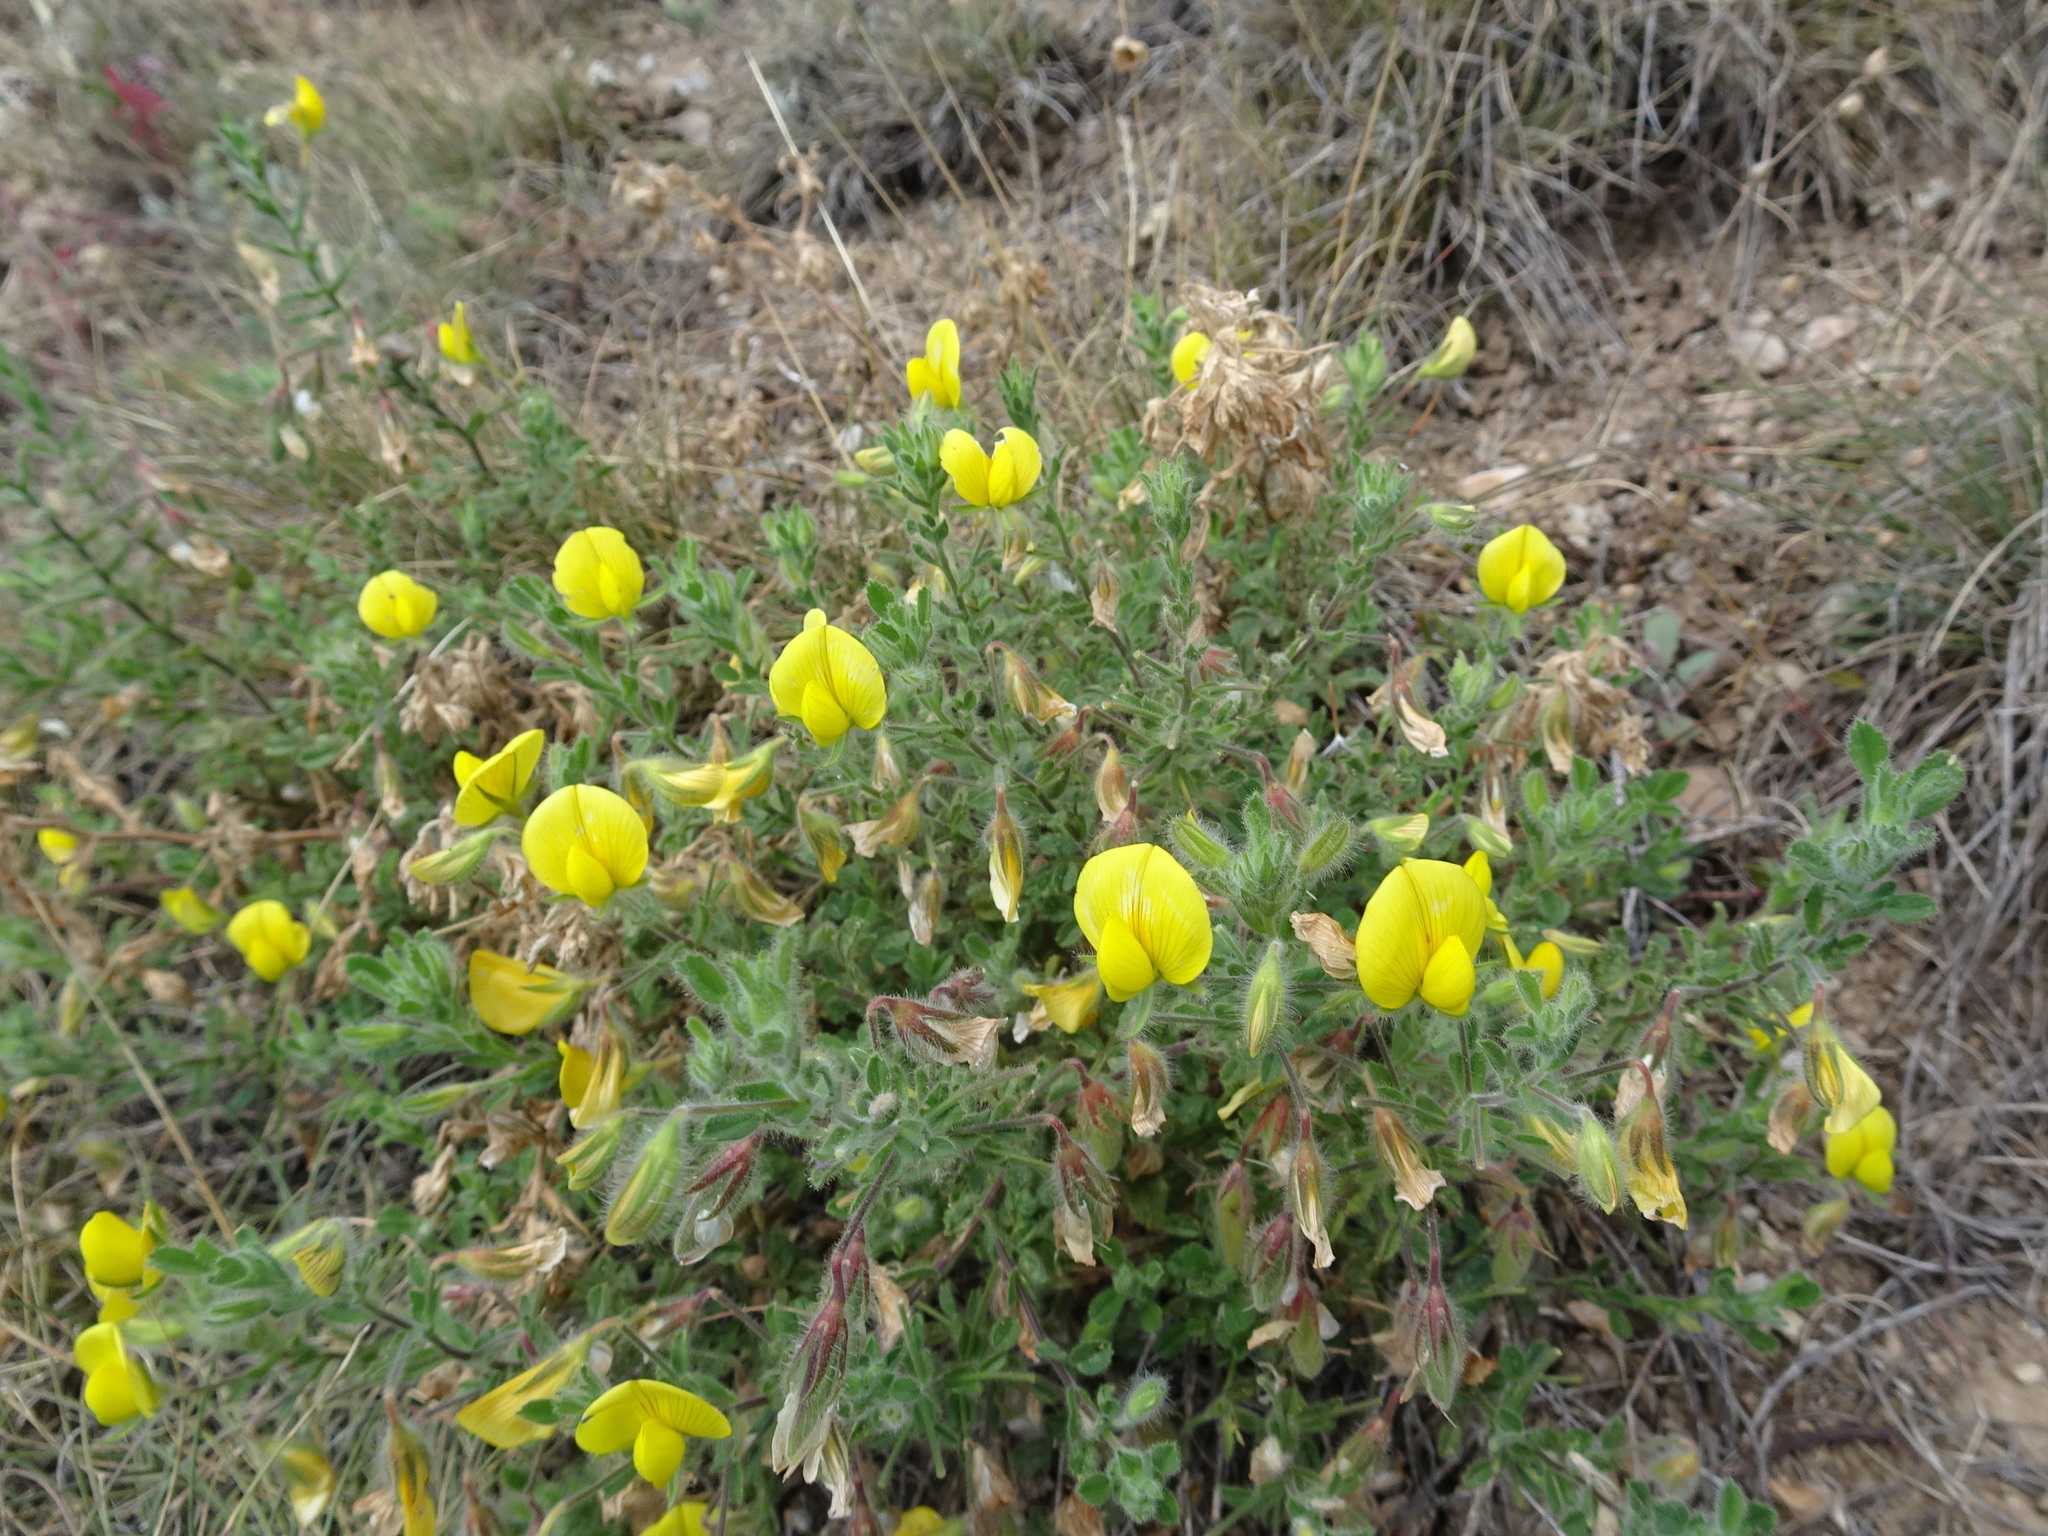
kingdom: Plantae
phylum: Tracheophyta
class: Magnoliopsida
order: Fabales
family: Fabaceae
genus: Ononis
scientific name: Ononis natrix
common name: Yellow restharrow
